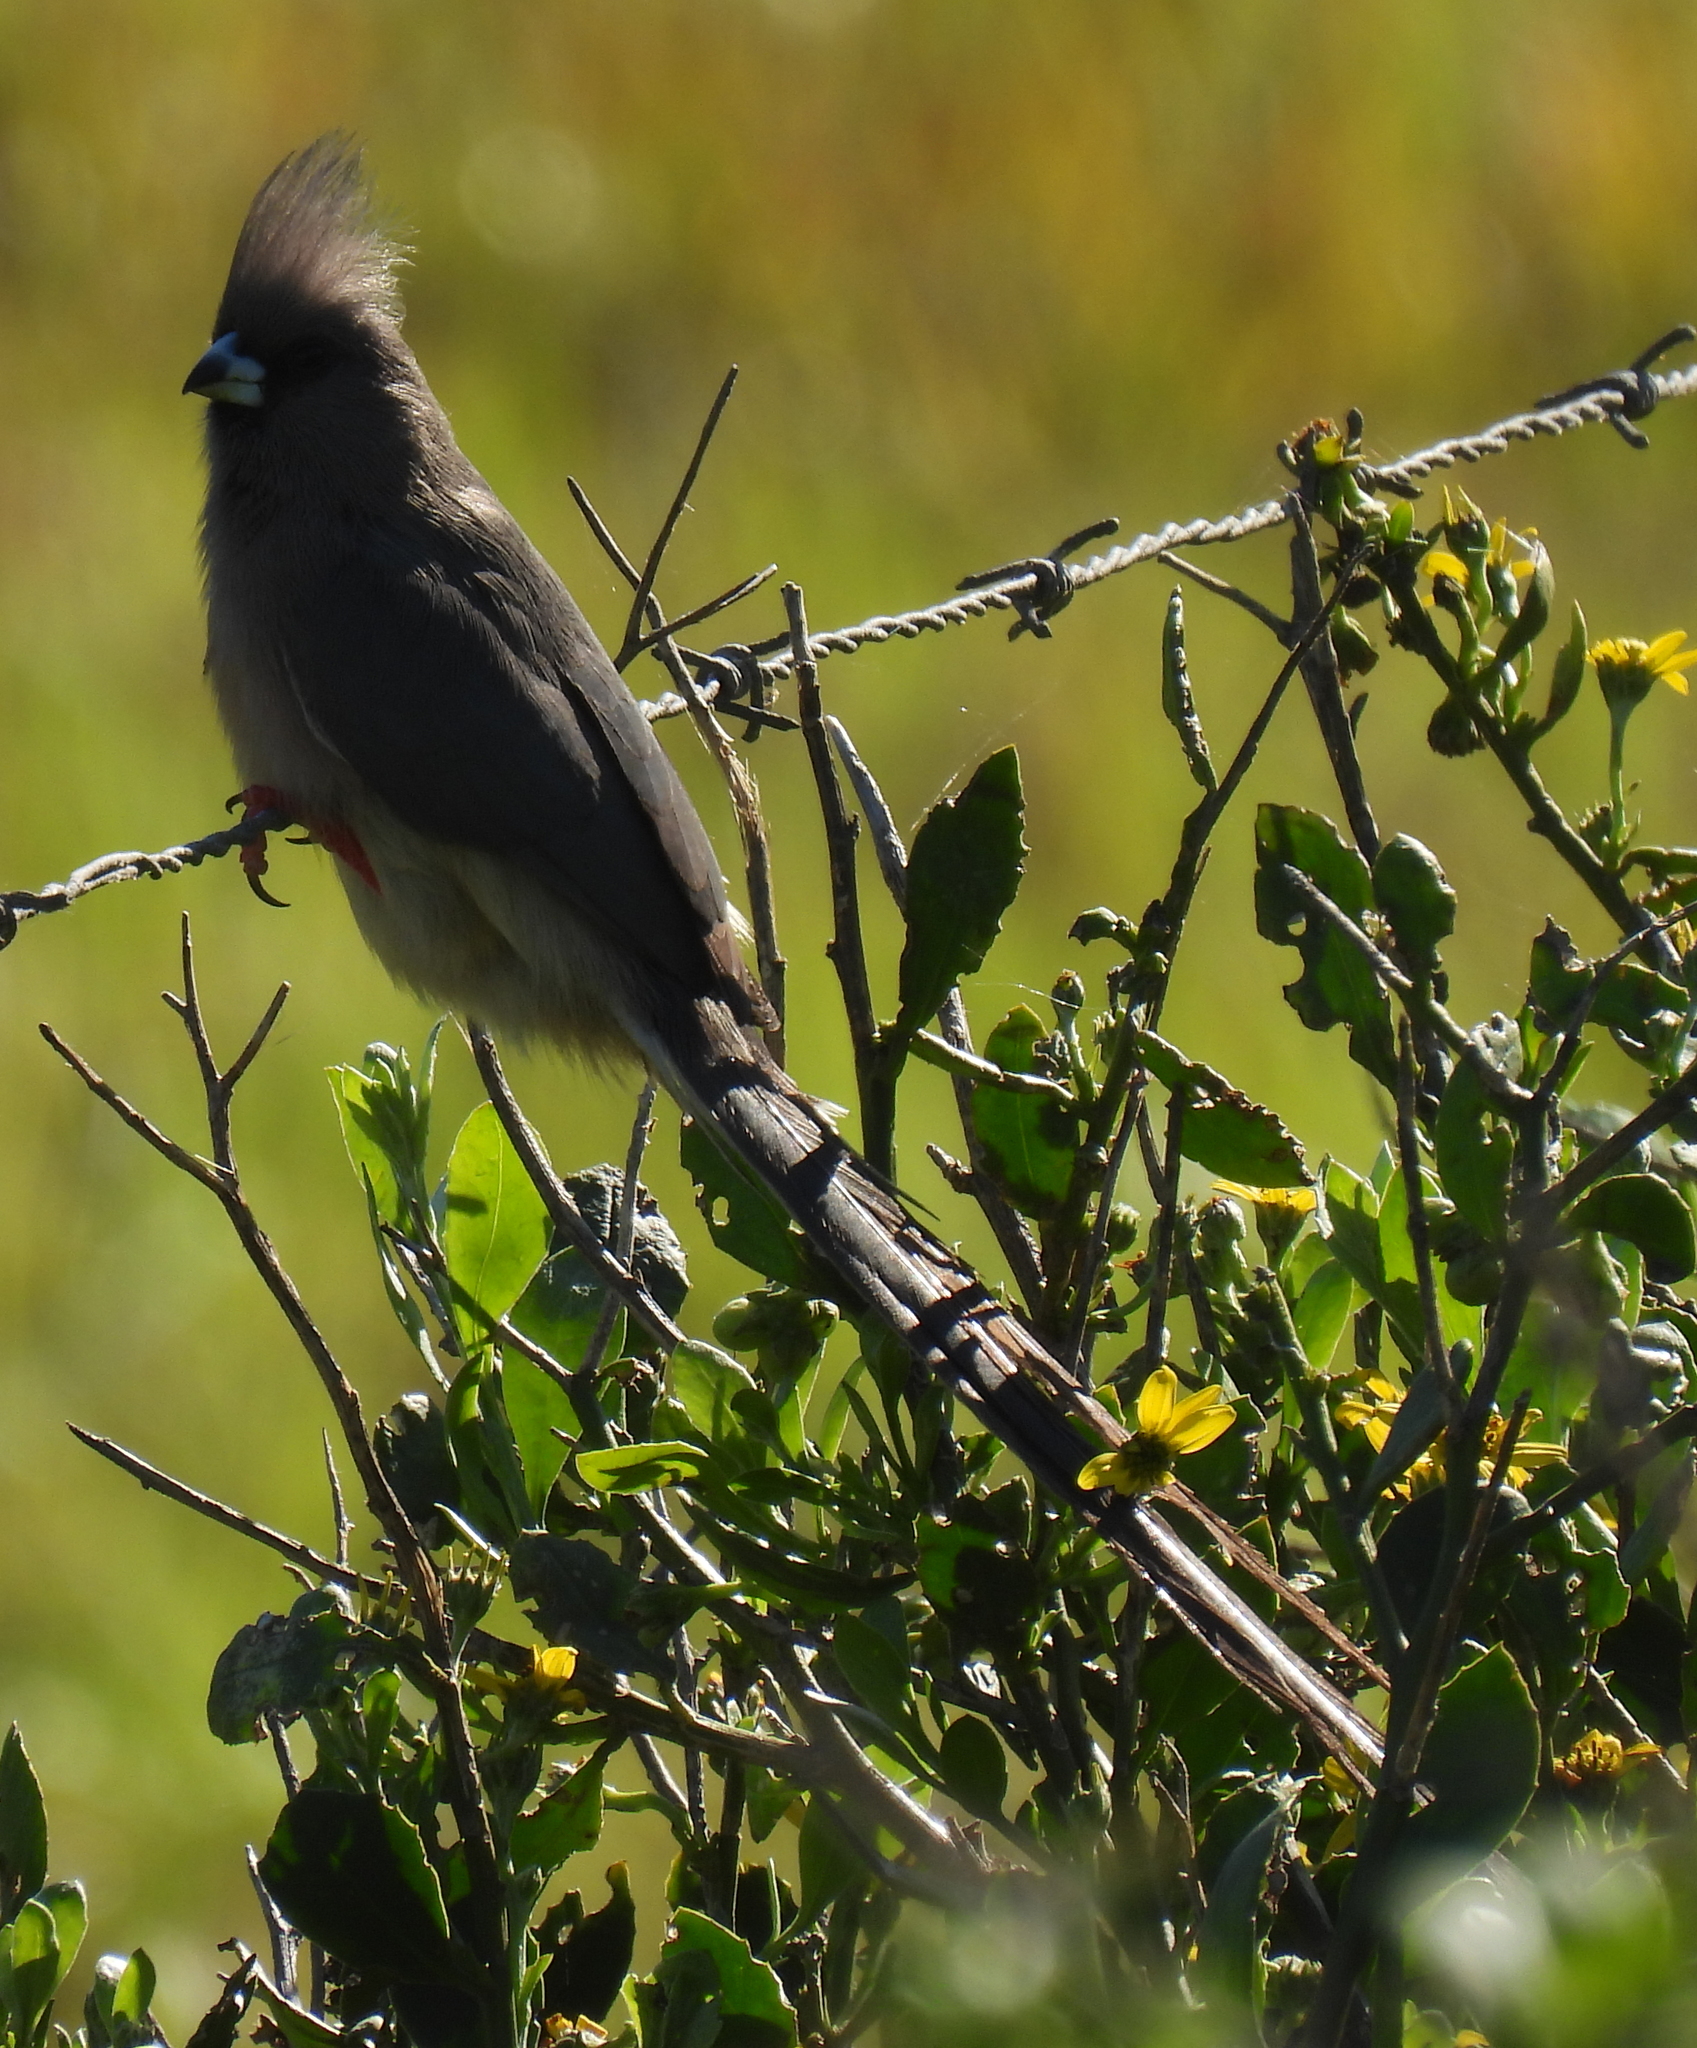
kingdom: Animalia
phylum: Chordata
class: Aves
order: Coliiformes
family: Coliidae
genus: Colius
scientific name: Colius colius
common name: White-backed mousebird
